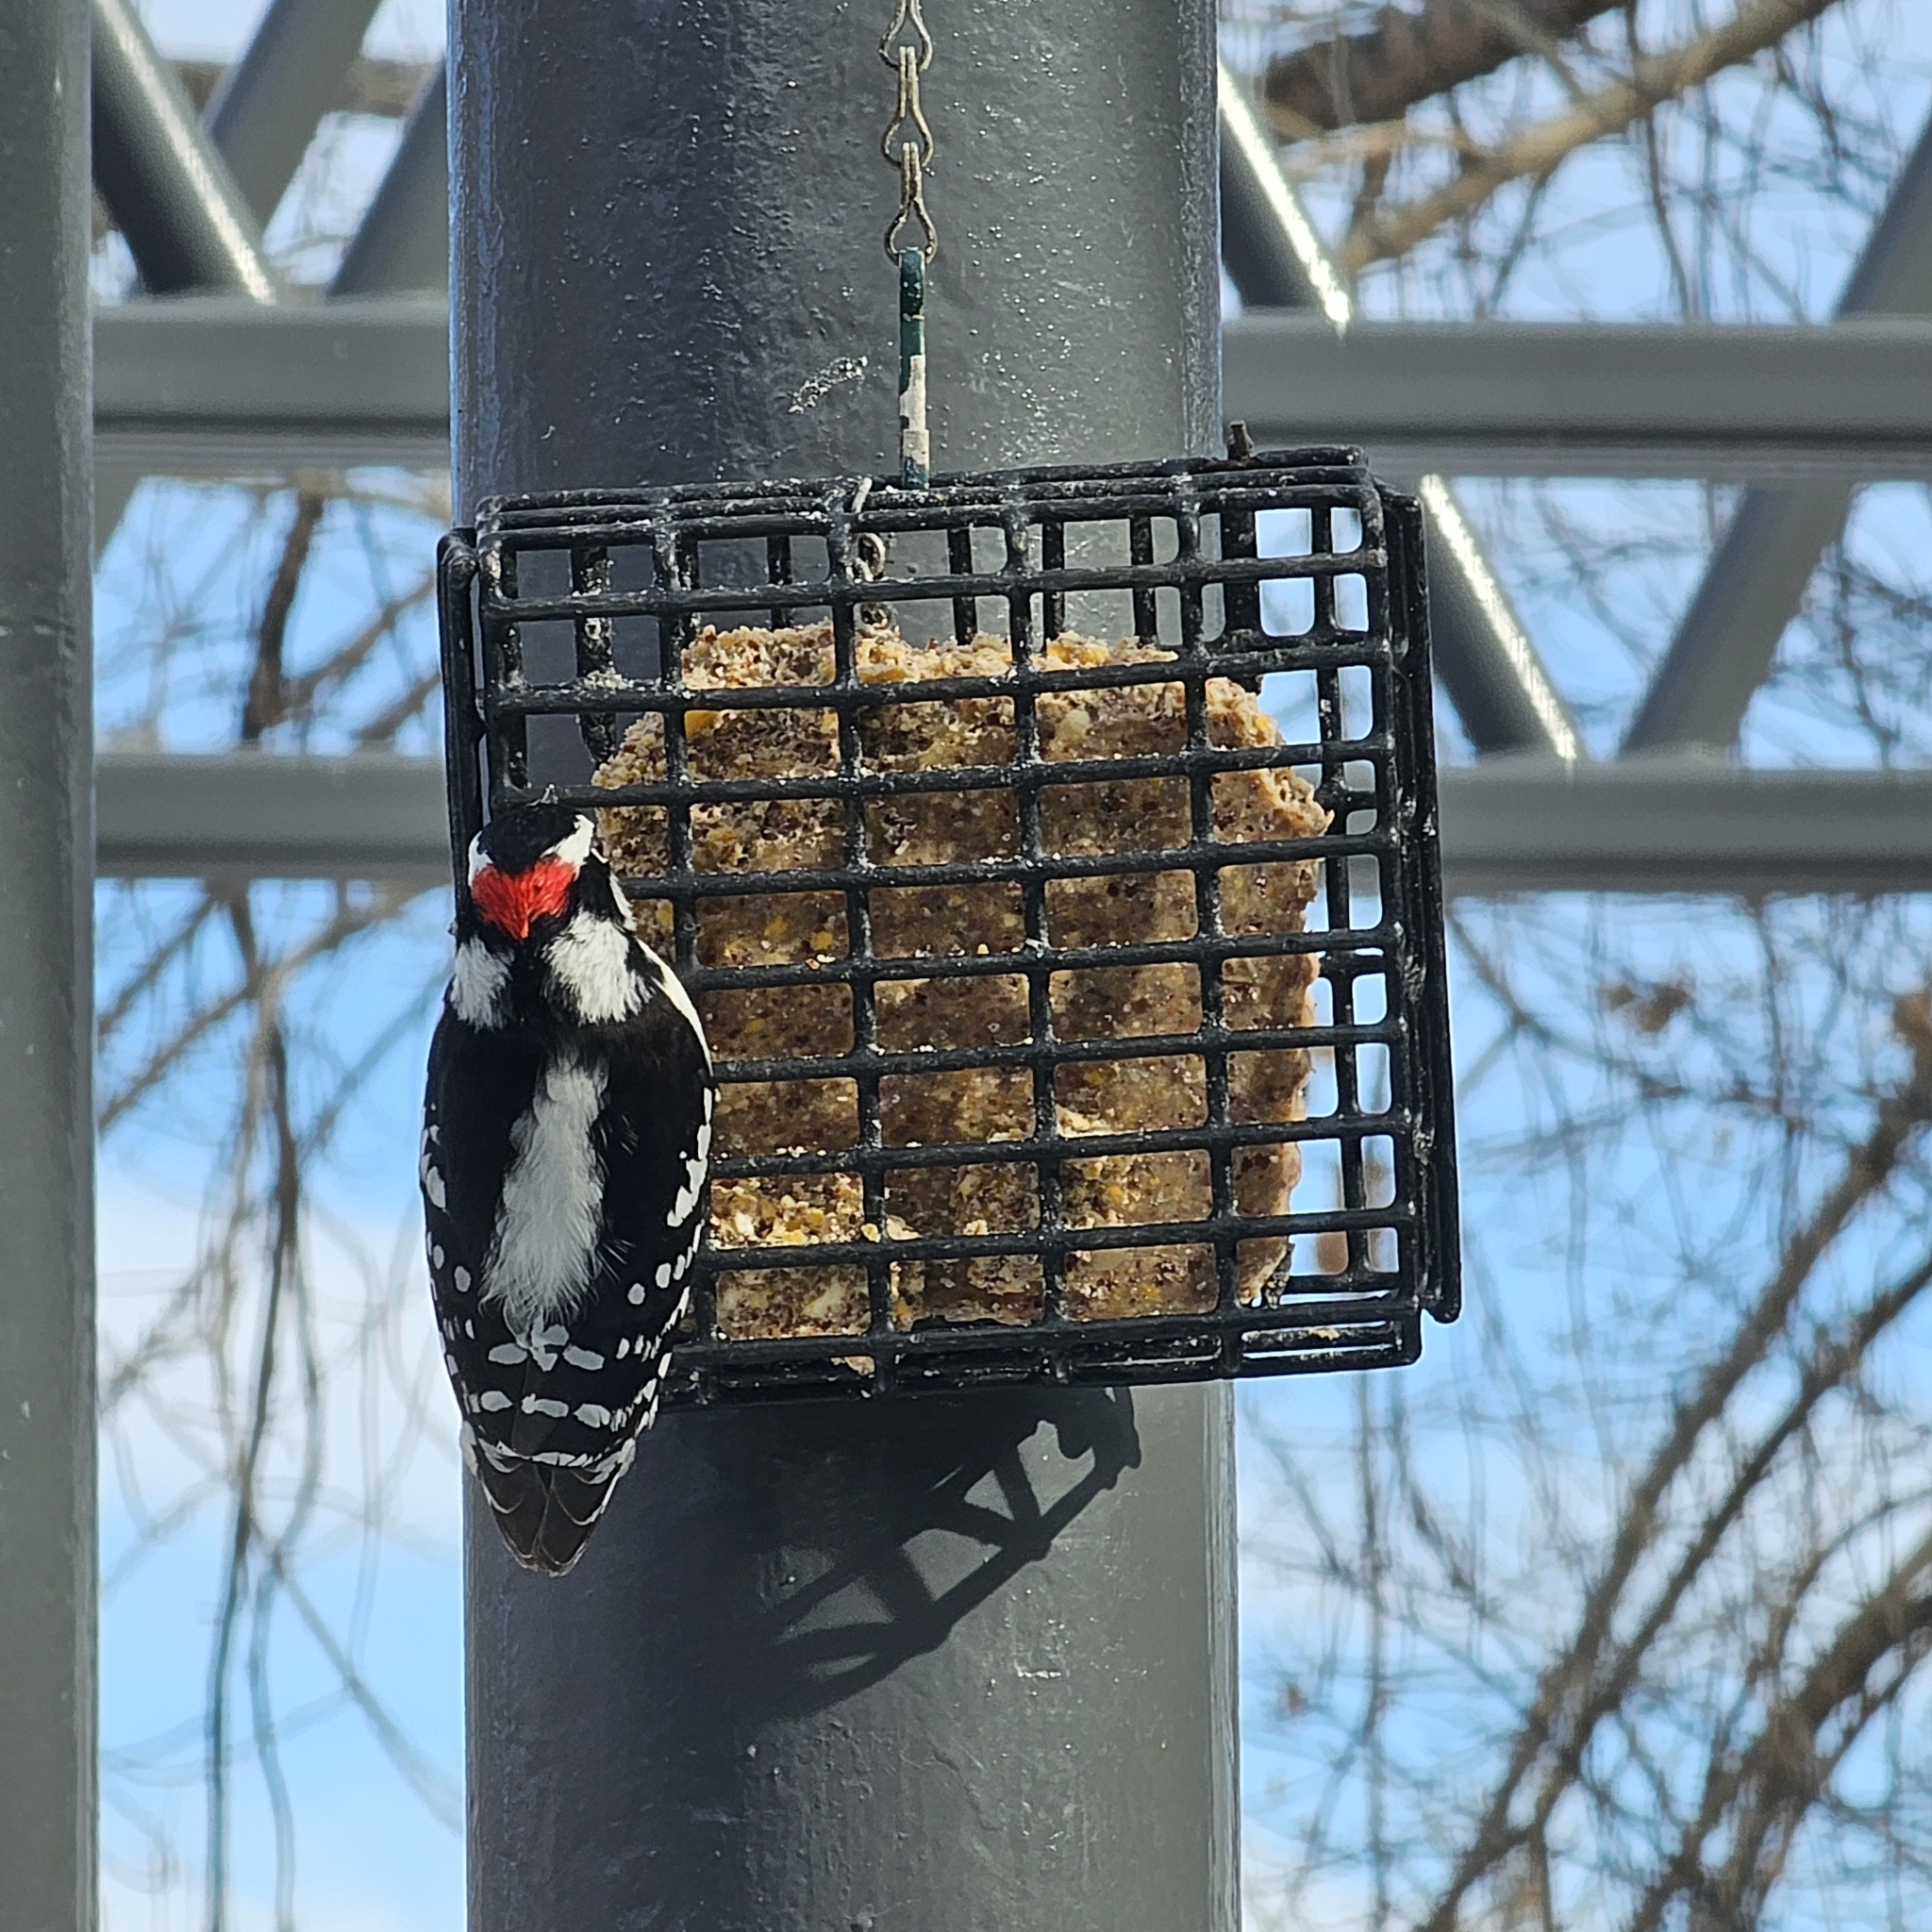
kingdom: Animalia
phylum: Chordata
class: Aves
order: Piciformes
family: Picidae
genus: Dryobates
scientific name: Dryobates pubescens
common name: Downy woodpecker
